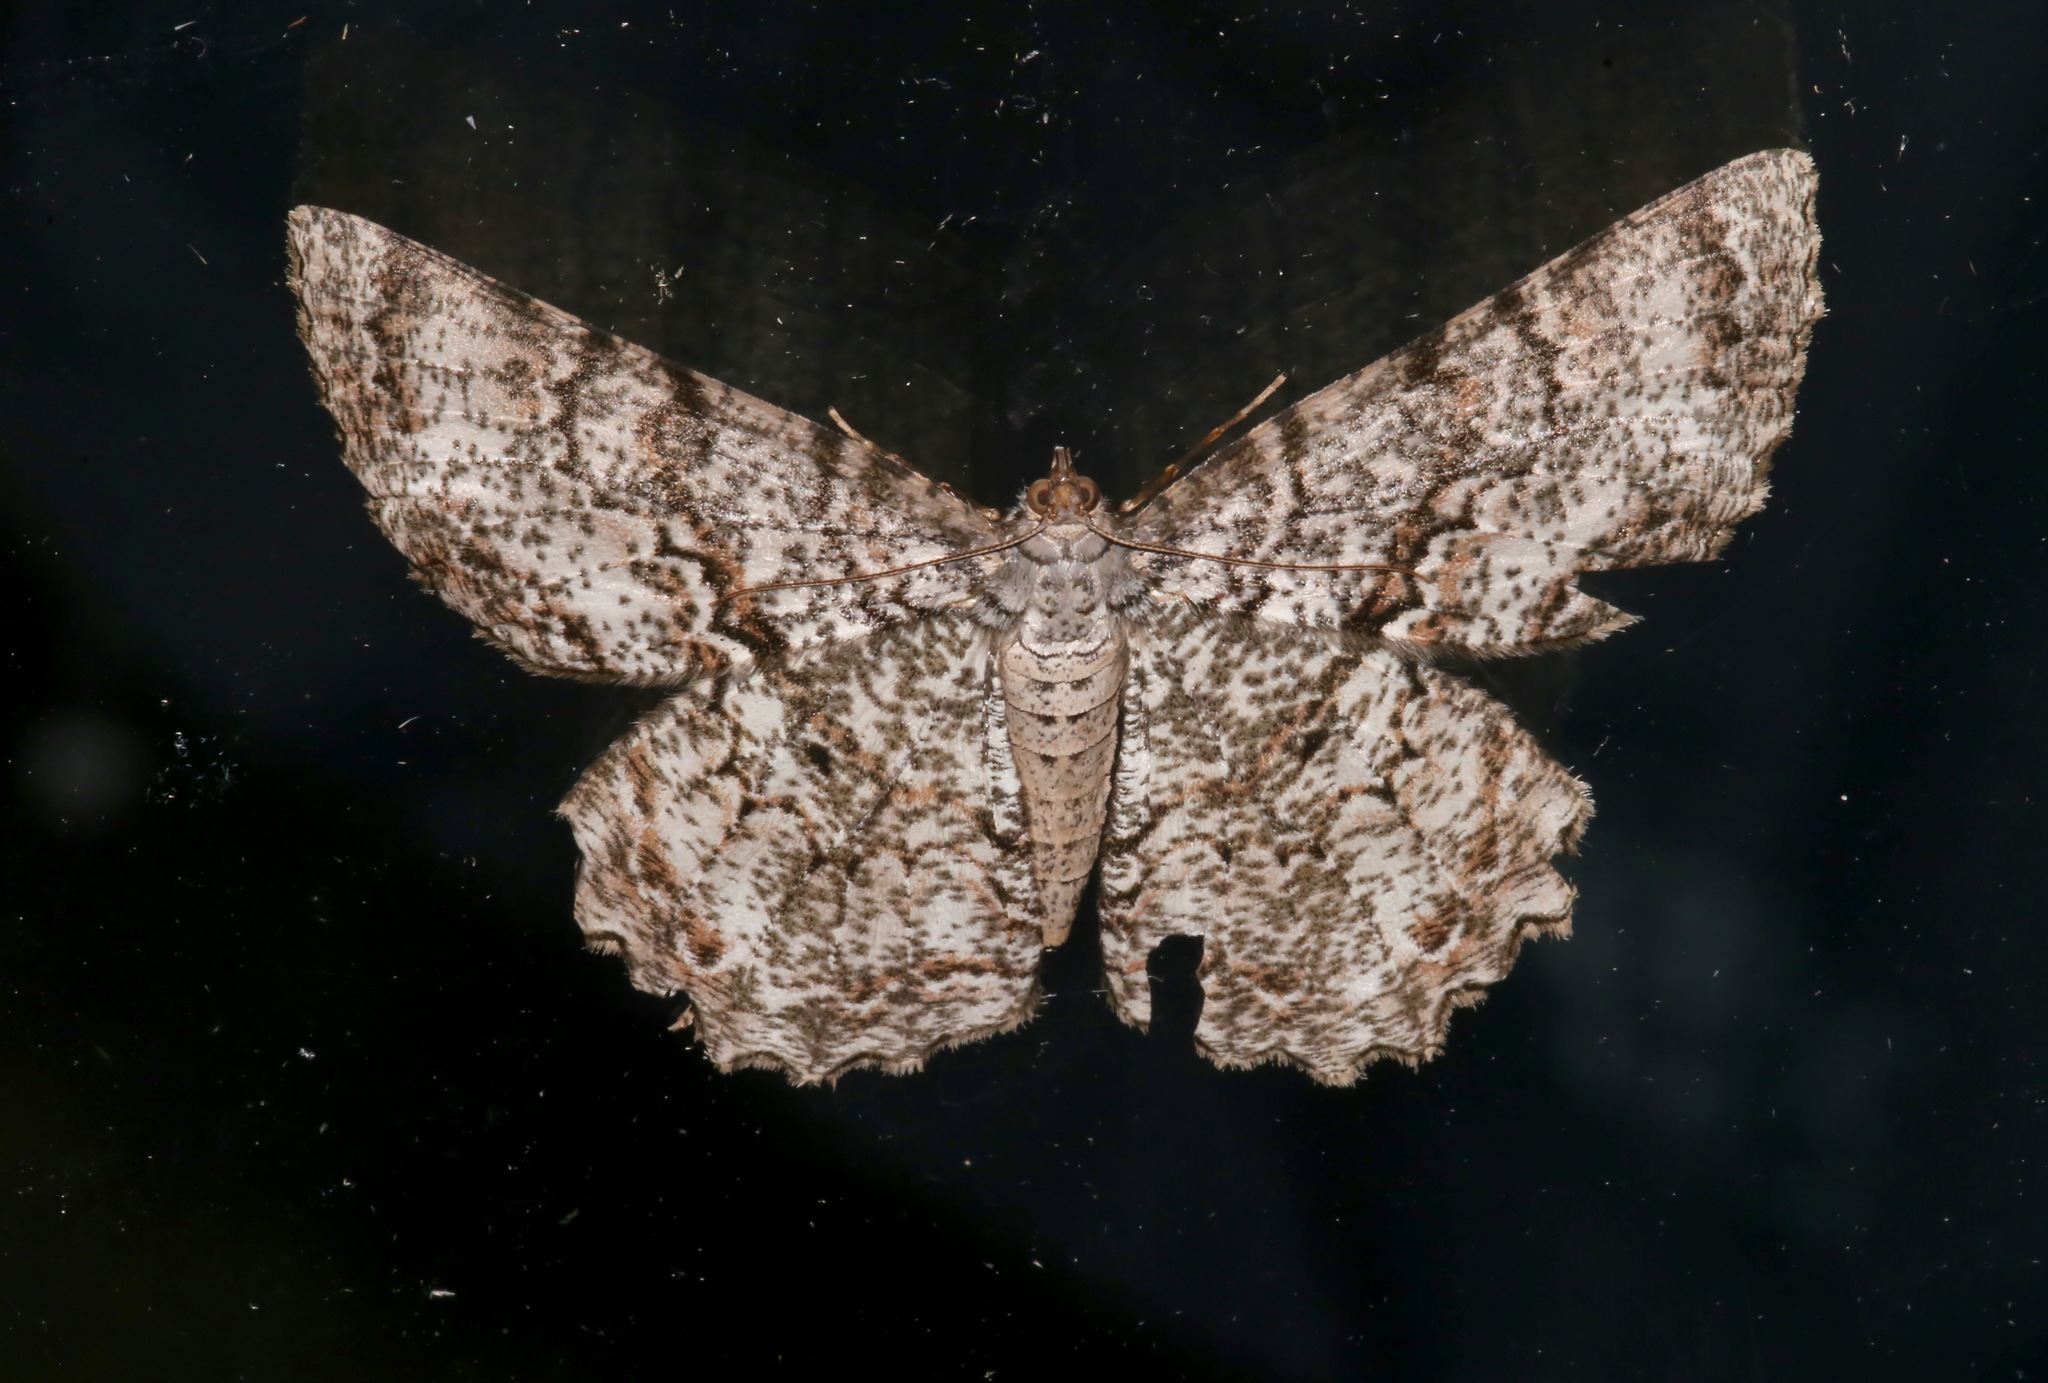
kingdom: Animalia
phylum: Arthropoda
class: Insecta
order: Lepidoptera
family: Geometridae
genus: Epimecis
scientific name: Epimecis hortaria
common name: Tulip-tree beauty
